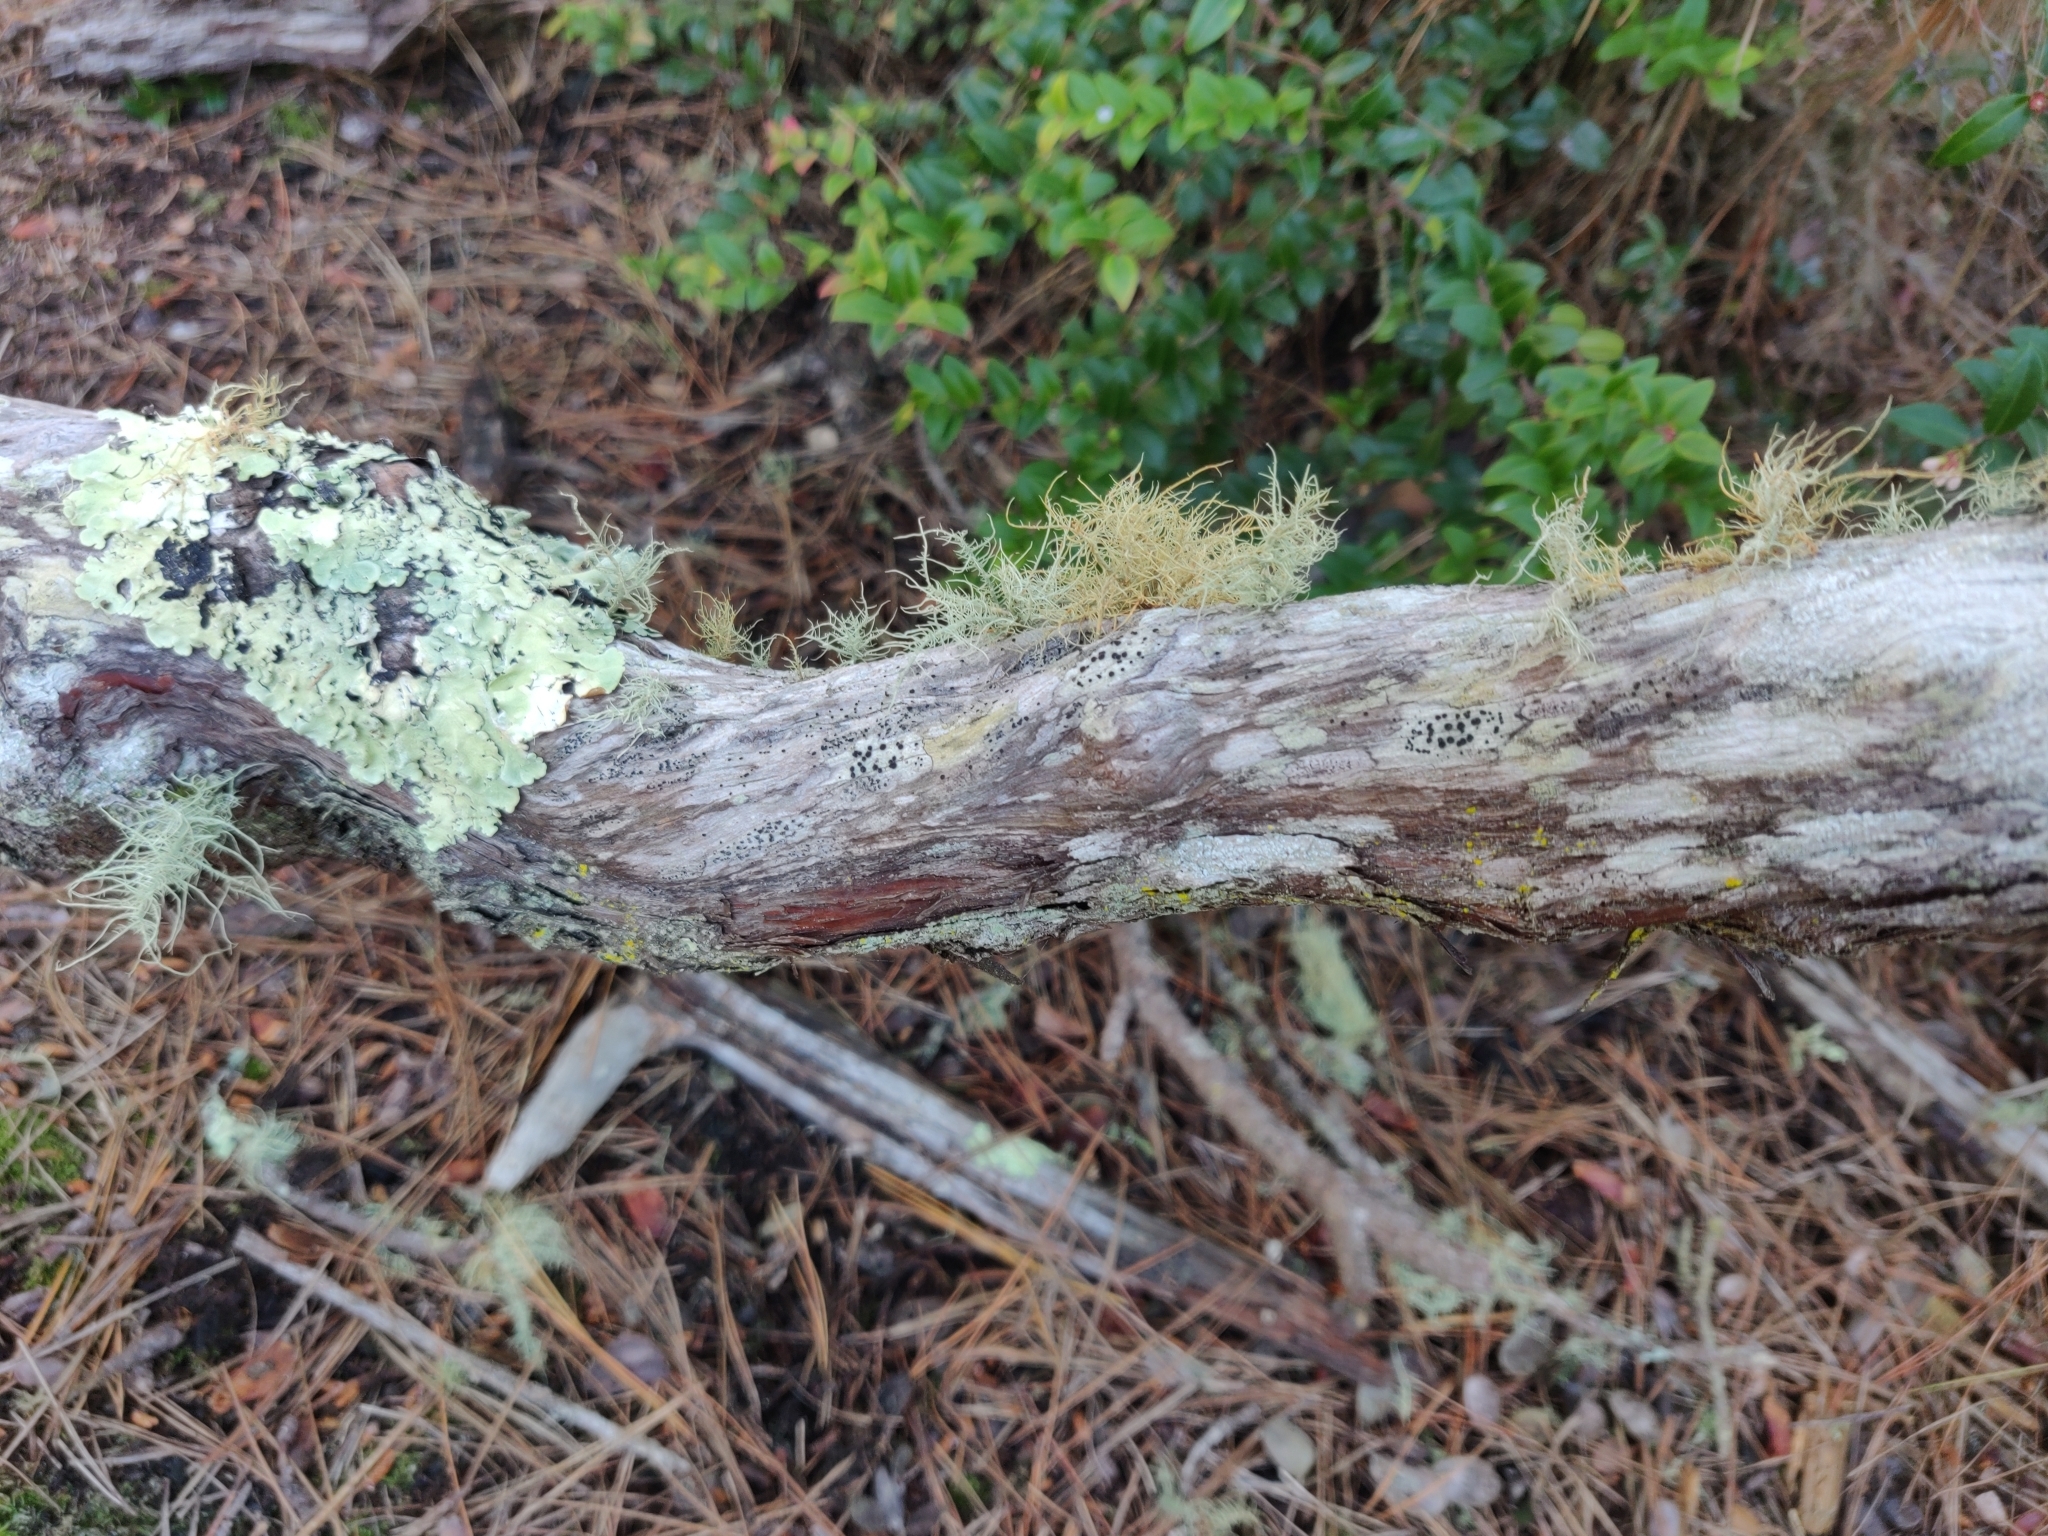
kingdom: Plantae
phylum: Tracheophyta
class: Magnoliopsida
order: Ericales
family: Ericaceae
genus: Arctostaphylos
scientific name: Arctostaphylos tomentosa
